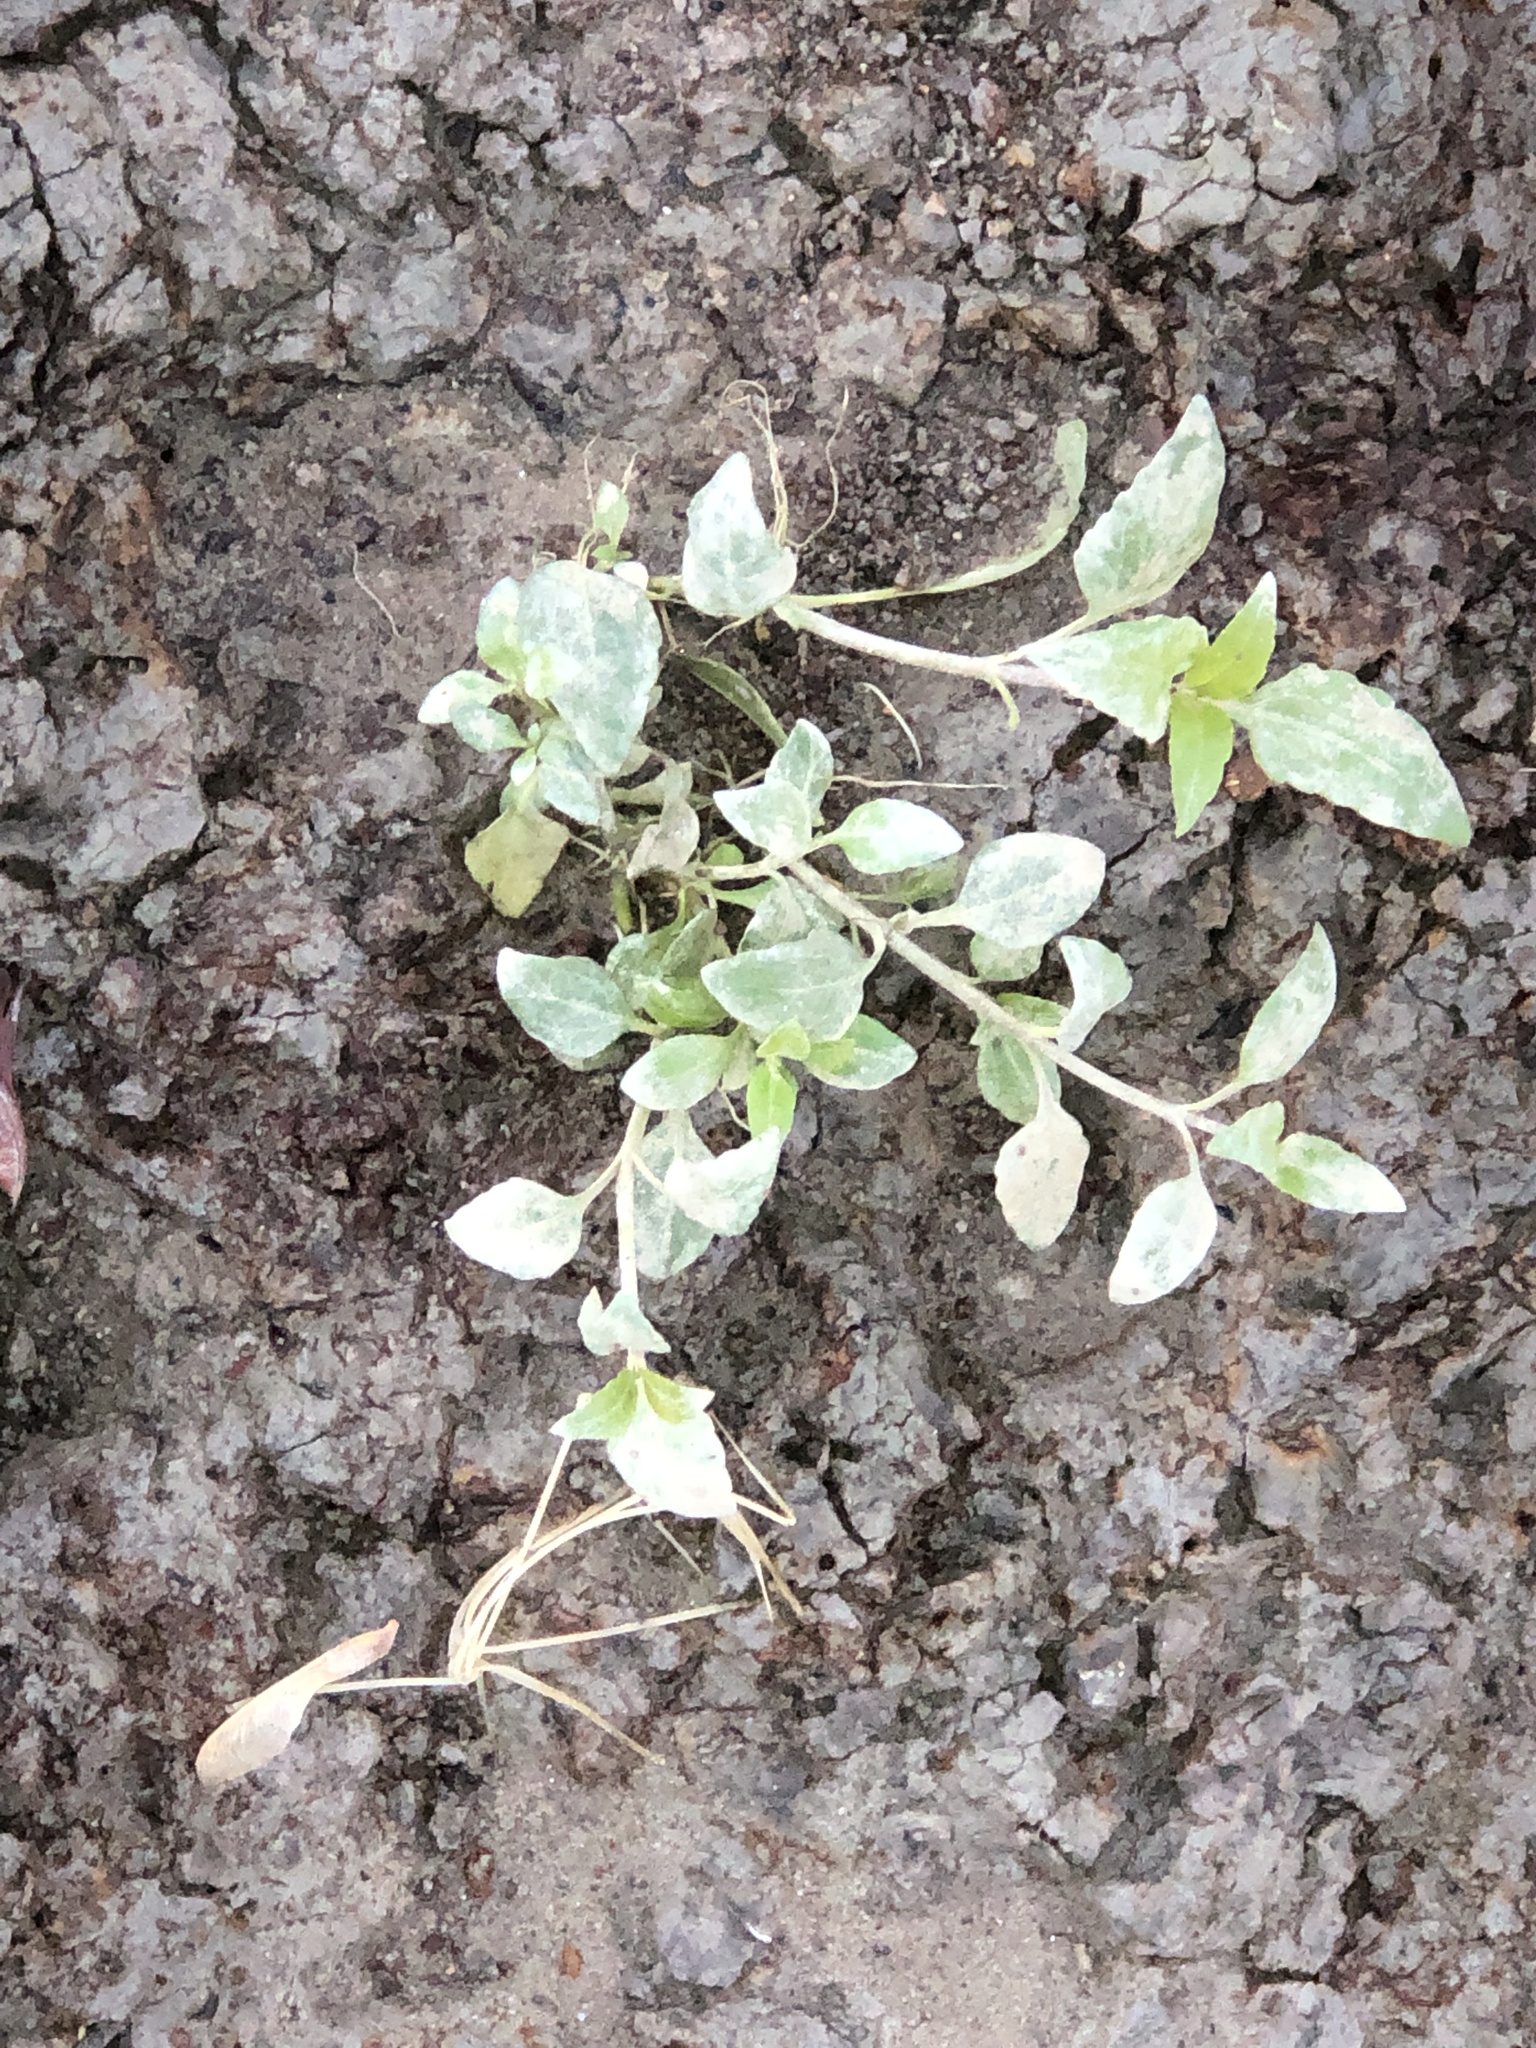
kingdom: Plantae
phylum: Tracheophyta
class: Magnoliopsida
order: Asterales
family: Asteraceae
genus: Acmella
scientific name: Acmella repens
